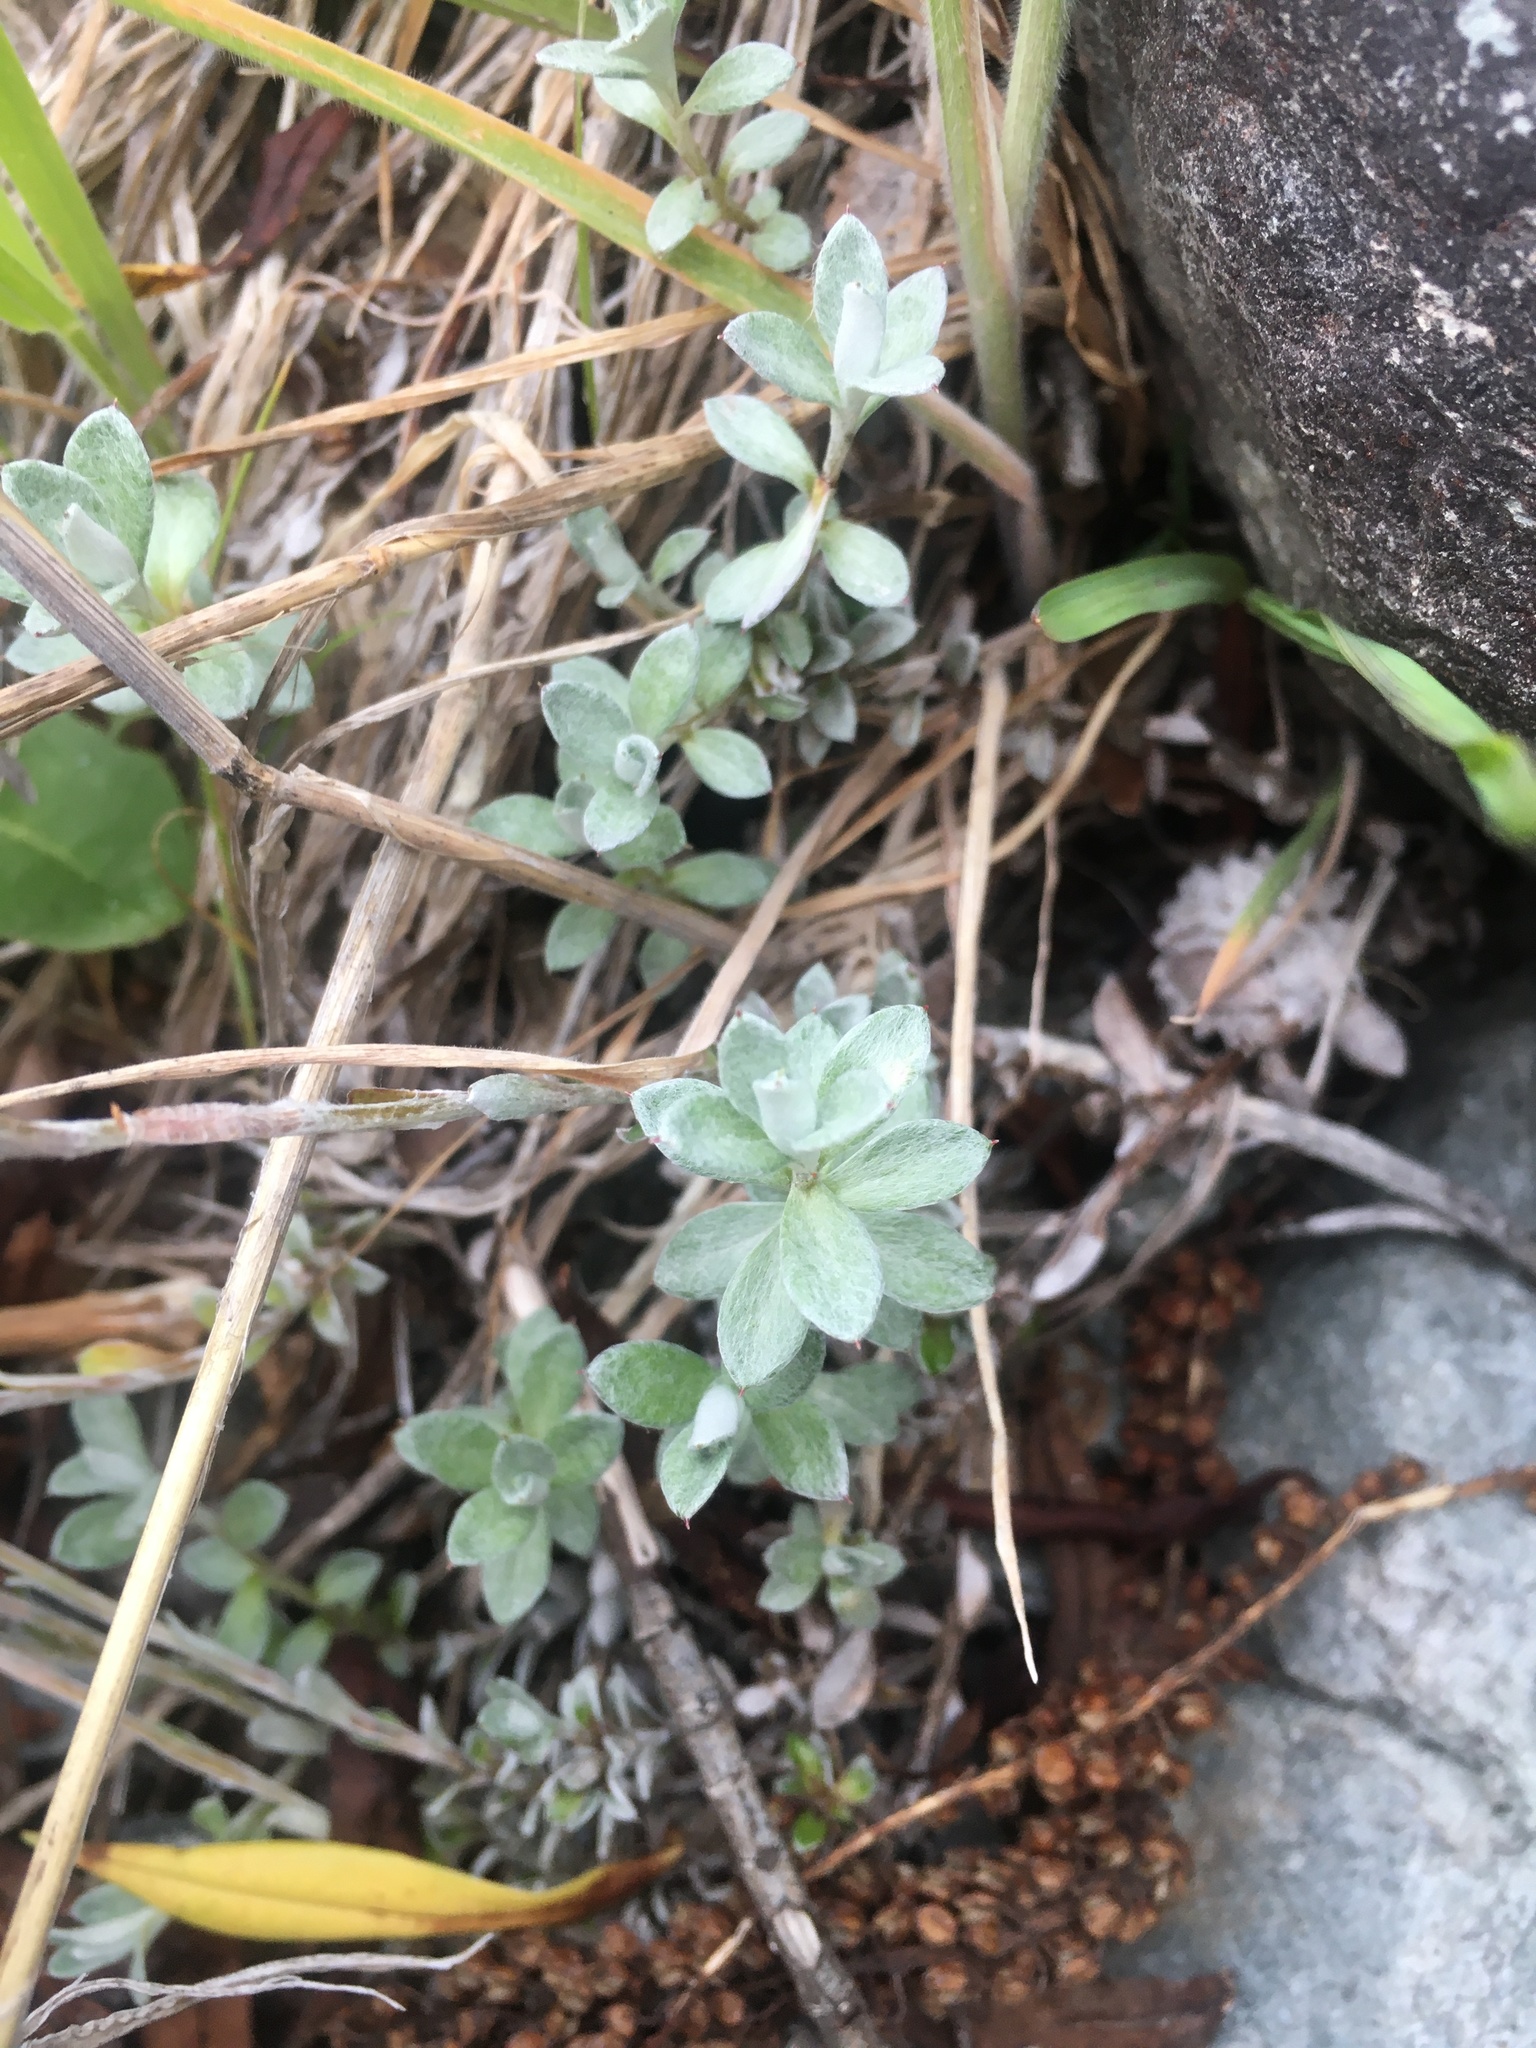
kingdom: Plantae
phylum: Tracheophyta
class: Magnoliopsida
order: Asterales
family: Asteraceae
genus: Anaphalioides
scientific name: Anaphalioides bellidioides
